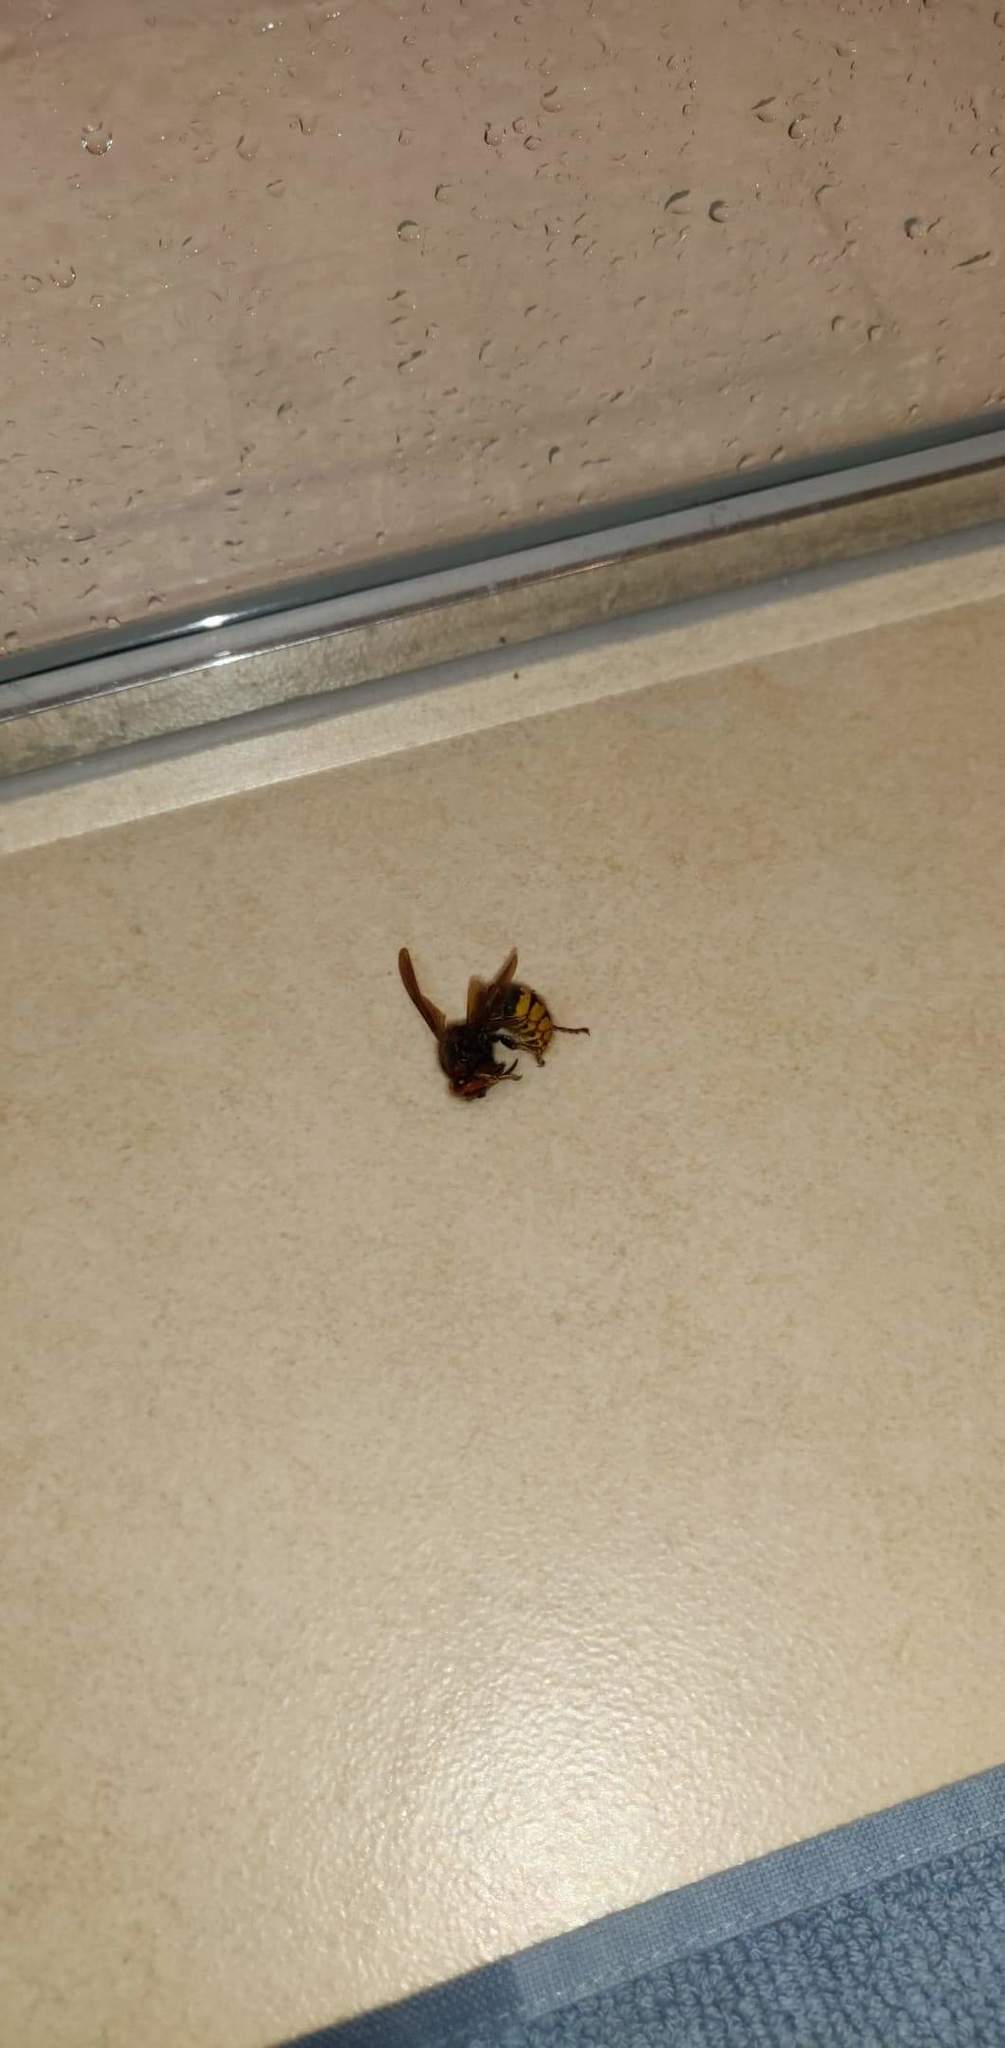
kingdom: Animalia
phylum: Arthropoda
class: Insecta
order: Hymenoptera
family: Vespidae
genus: Vespa
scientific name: Vespa crabro
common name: Hornet
